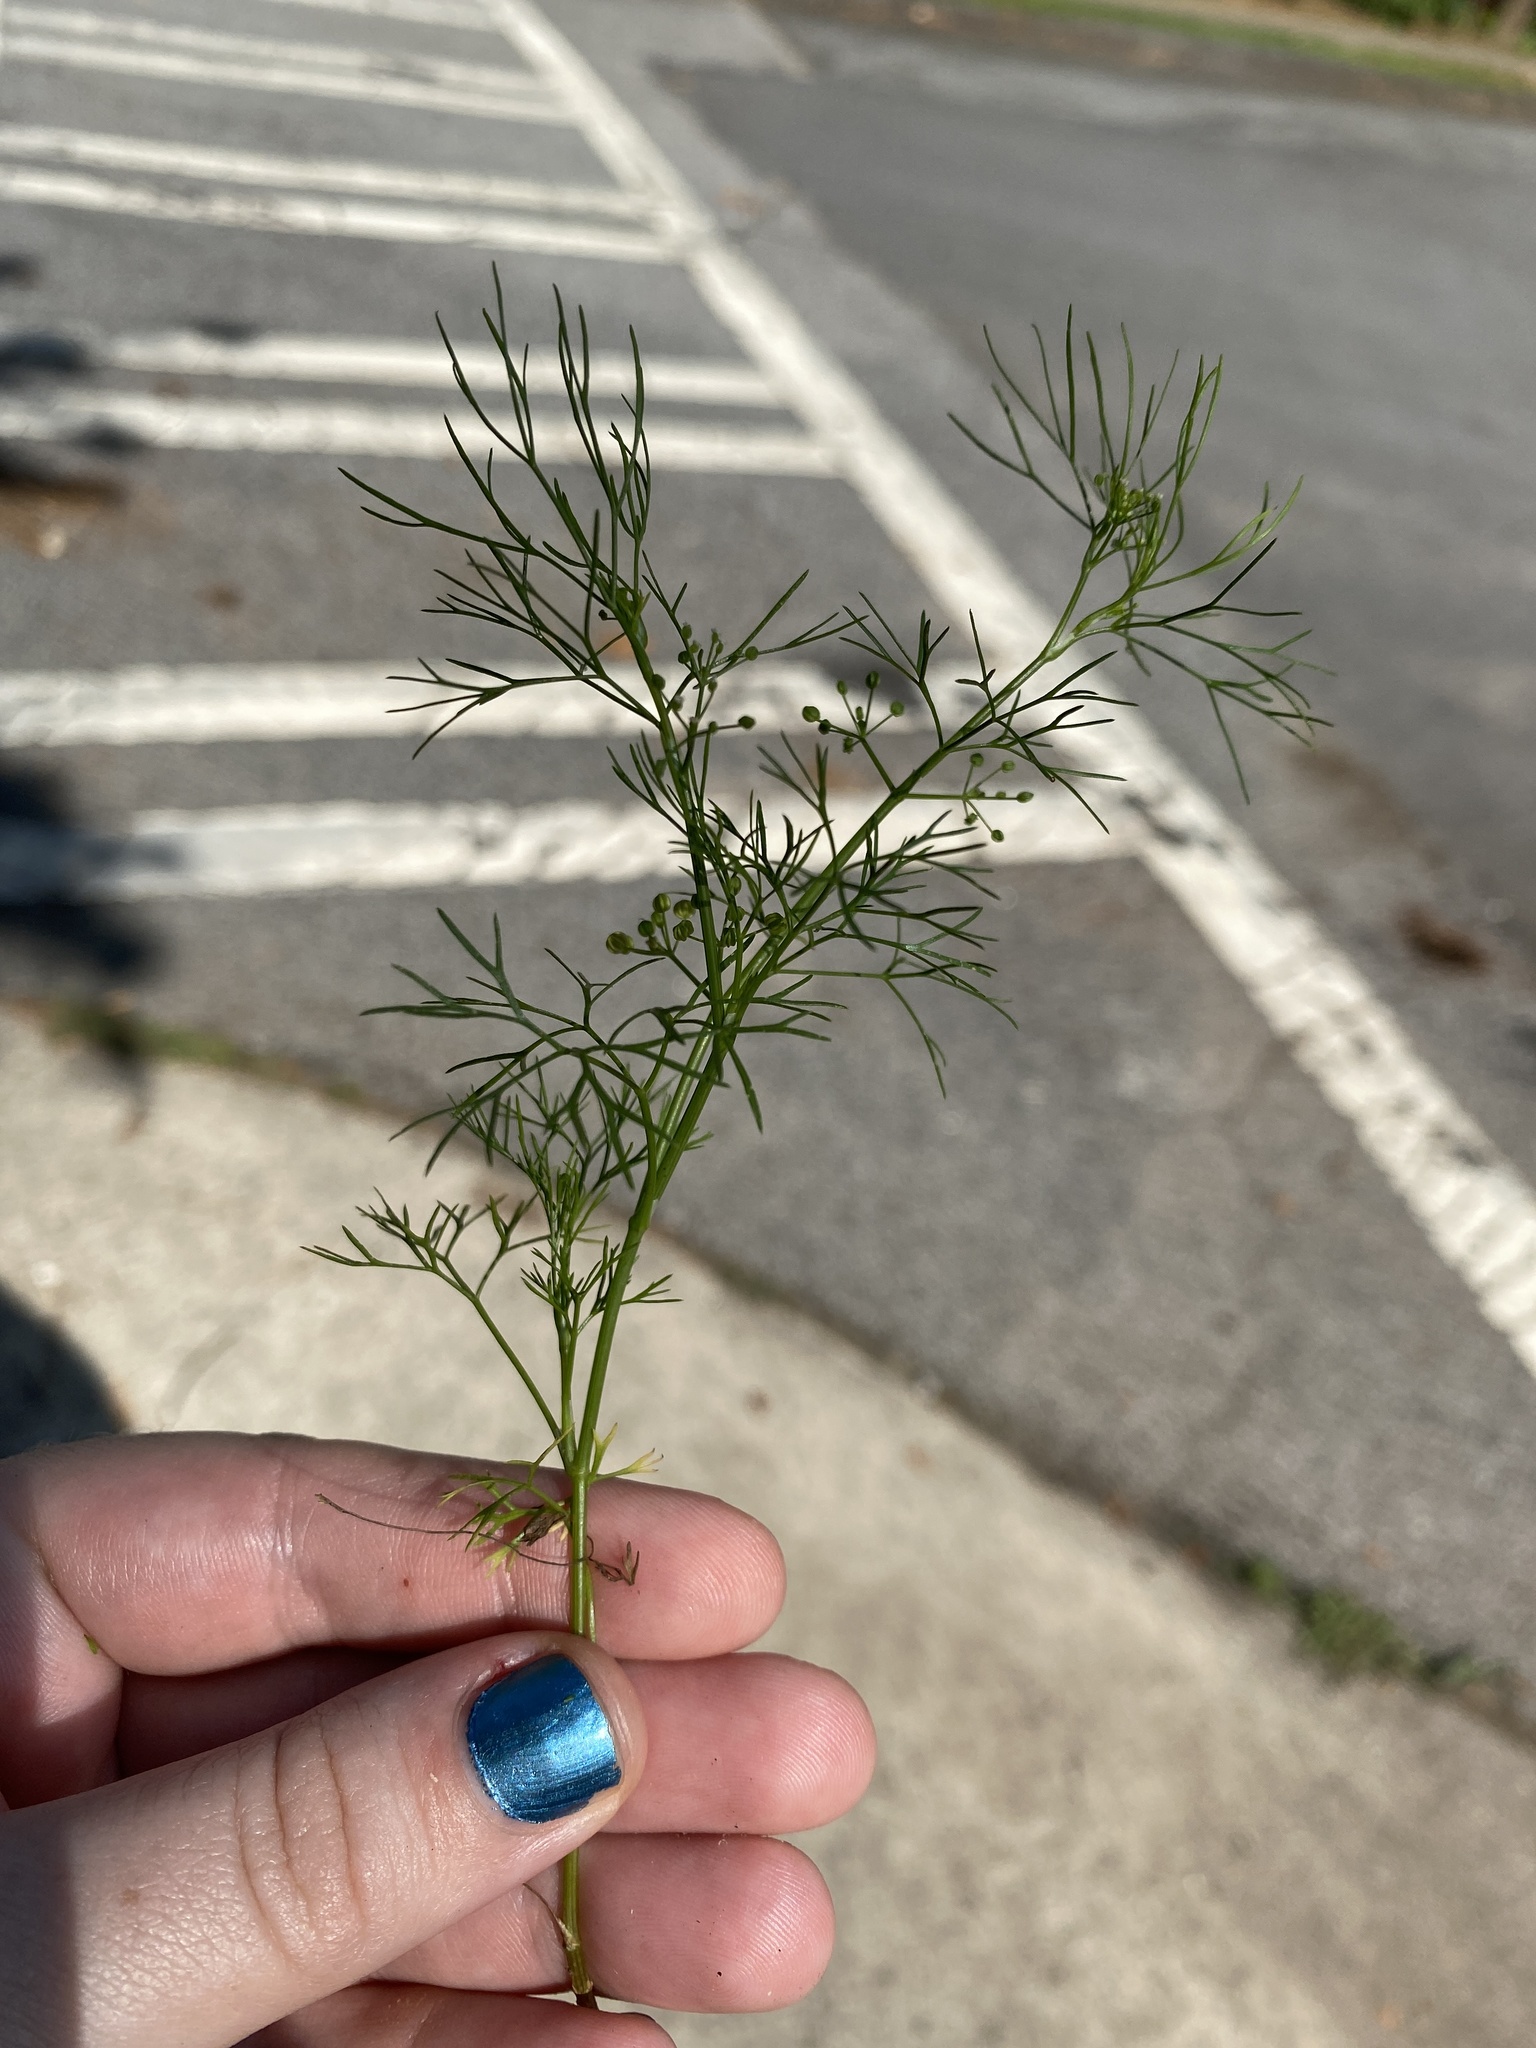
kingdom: Plantae
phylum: Tracheophyta
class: Magnoliopsida
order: Apiales
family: Apiaceae
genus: Cyclospermum
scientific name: Cyclospermum leptophyllum
